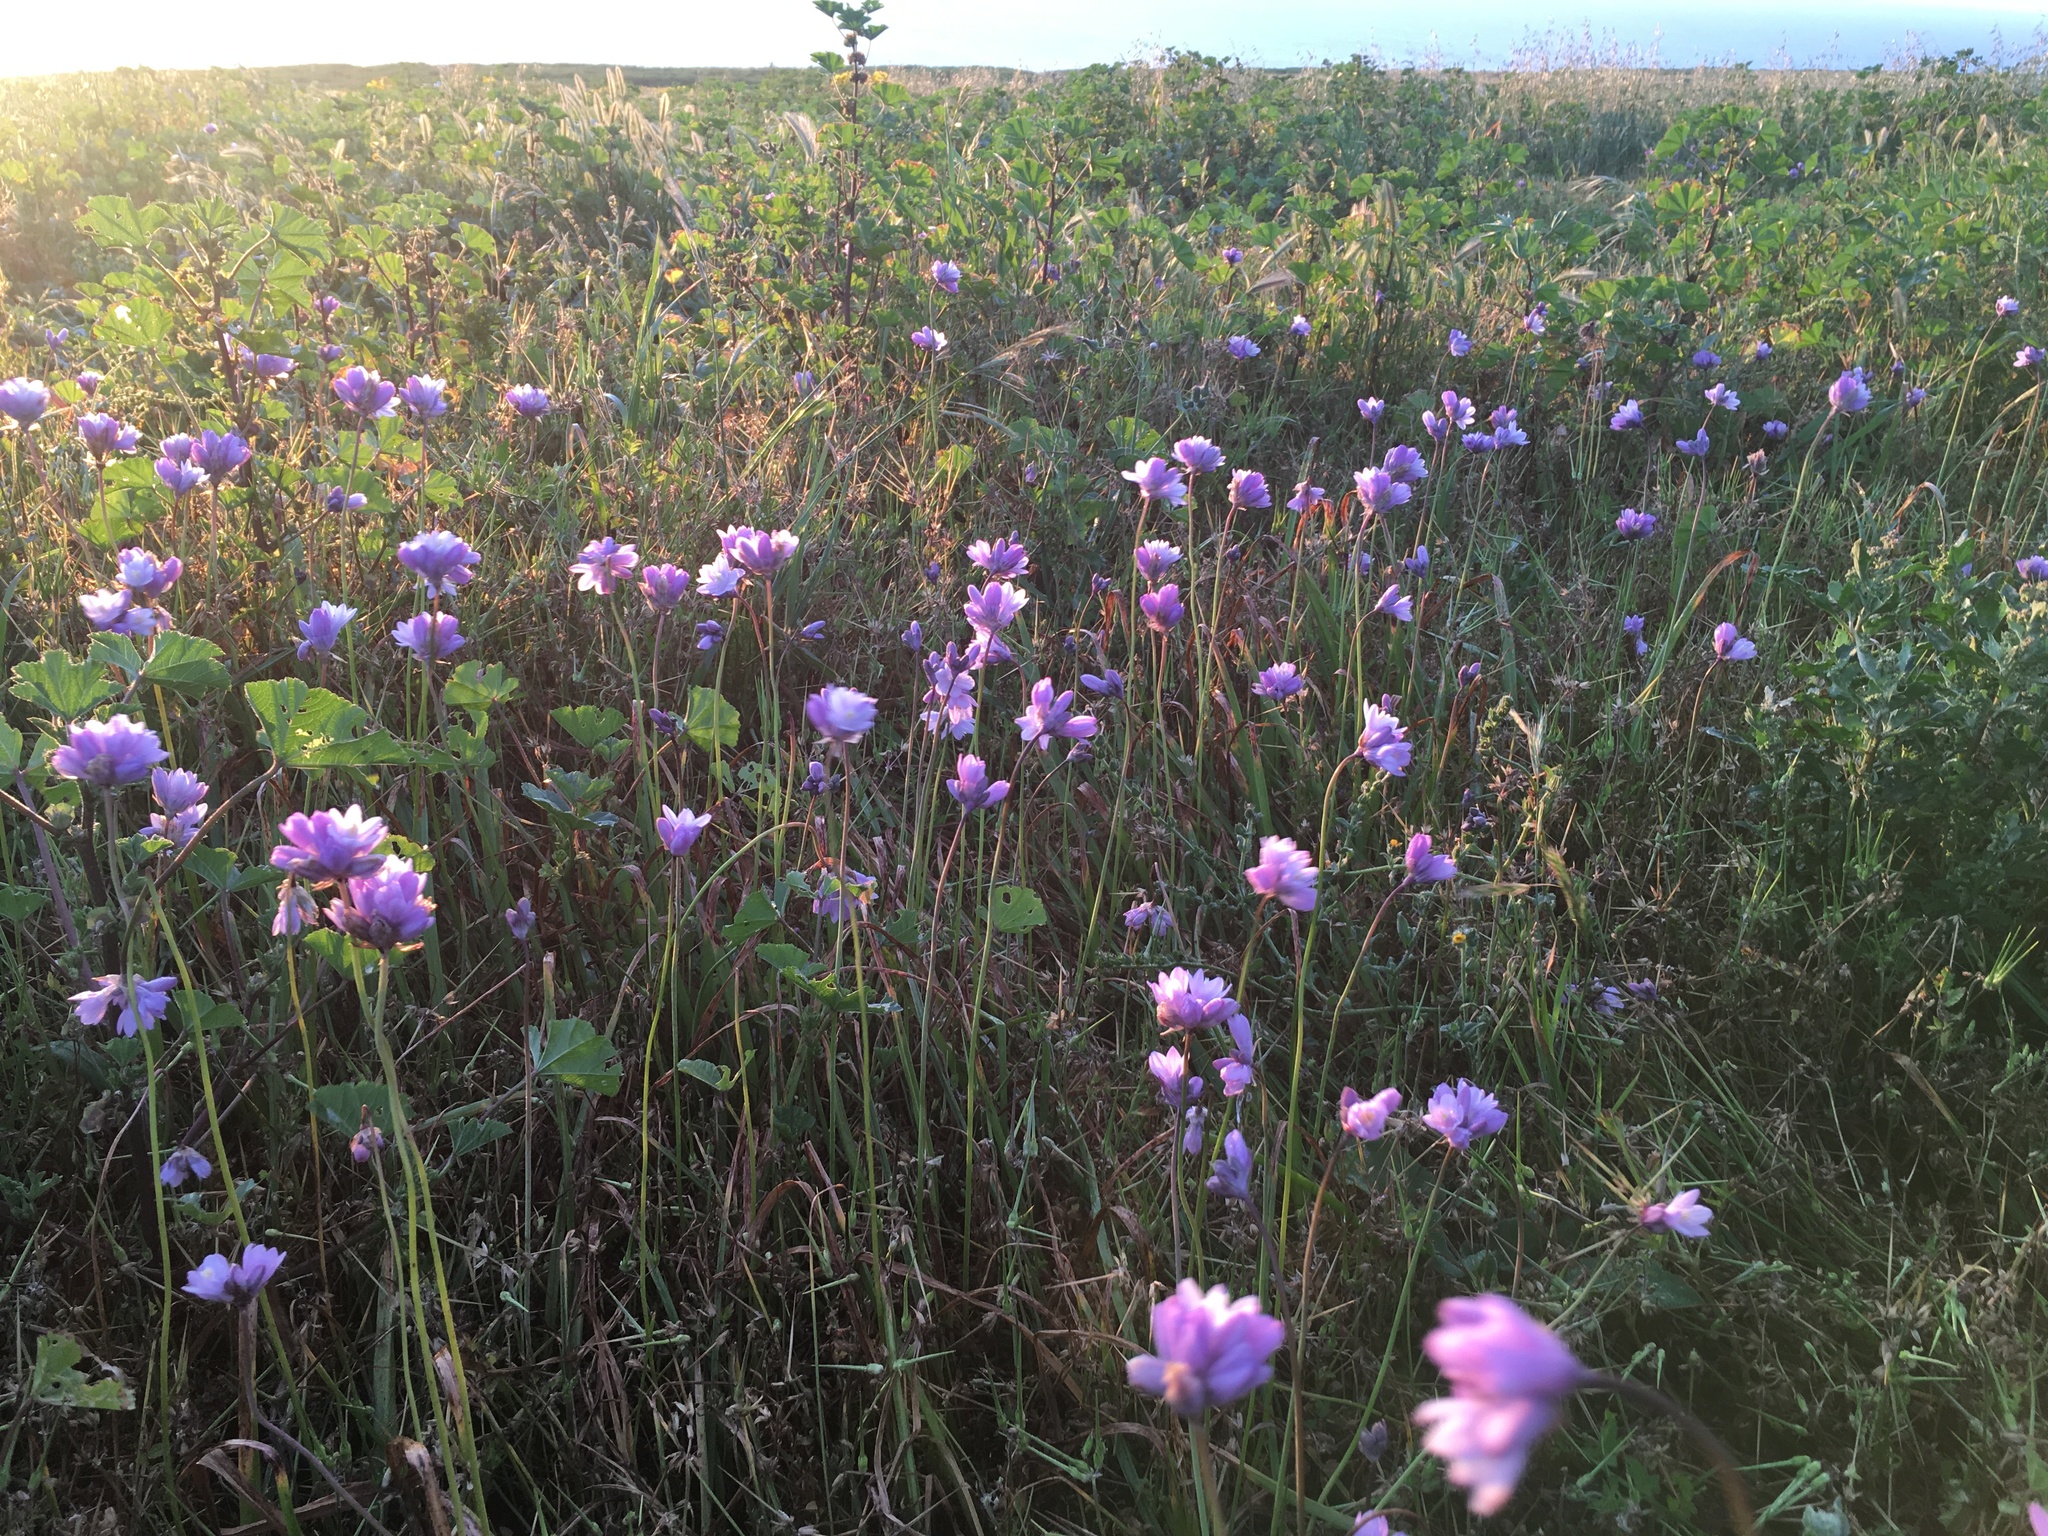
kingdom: Plantae
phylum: Tracheophyta
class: Liliopsida
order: Asparagales
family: Asparagaceae
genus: Dipterostemon
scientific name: Dipterostemon capitatus
